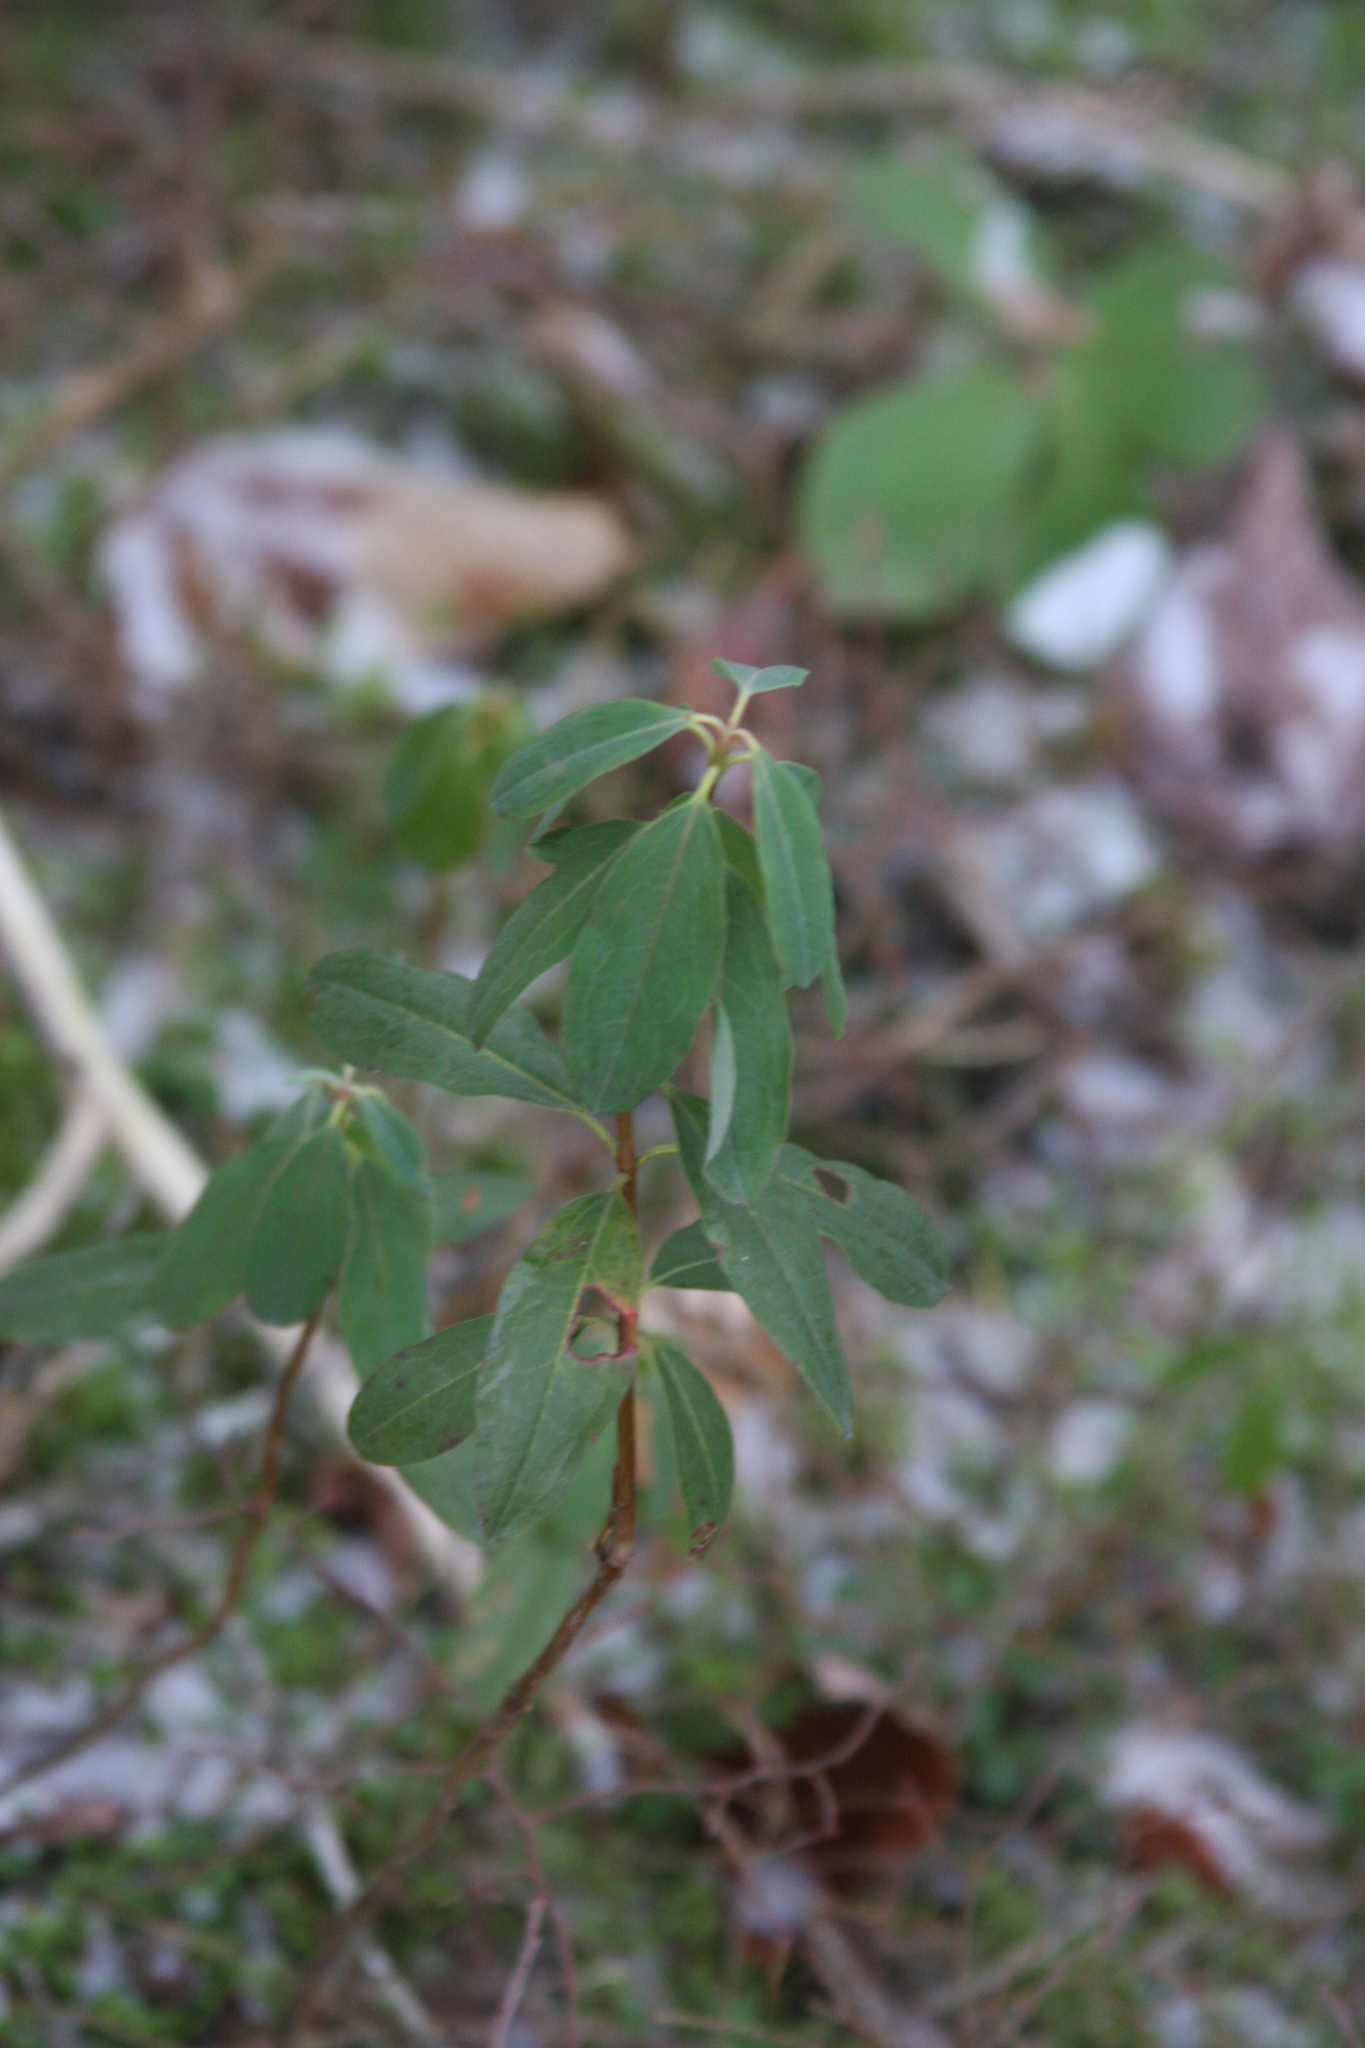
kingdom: Plantae
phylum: Tracheophyta
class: Magnoliopsida
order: Ericales
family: Ericaceae
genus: Kalmia
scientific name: Kalmia angustifolia
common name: Sheep-laurel
